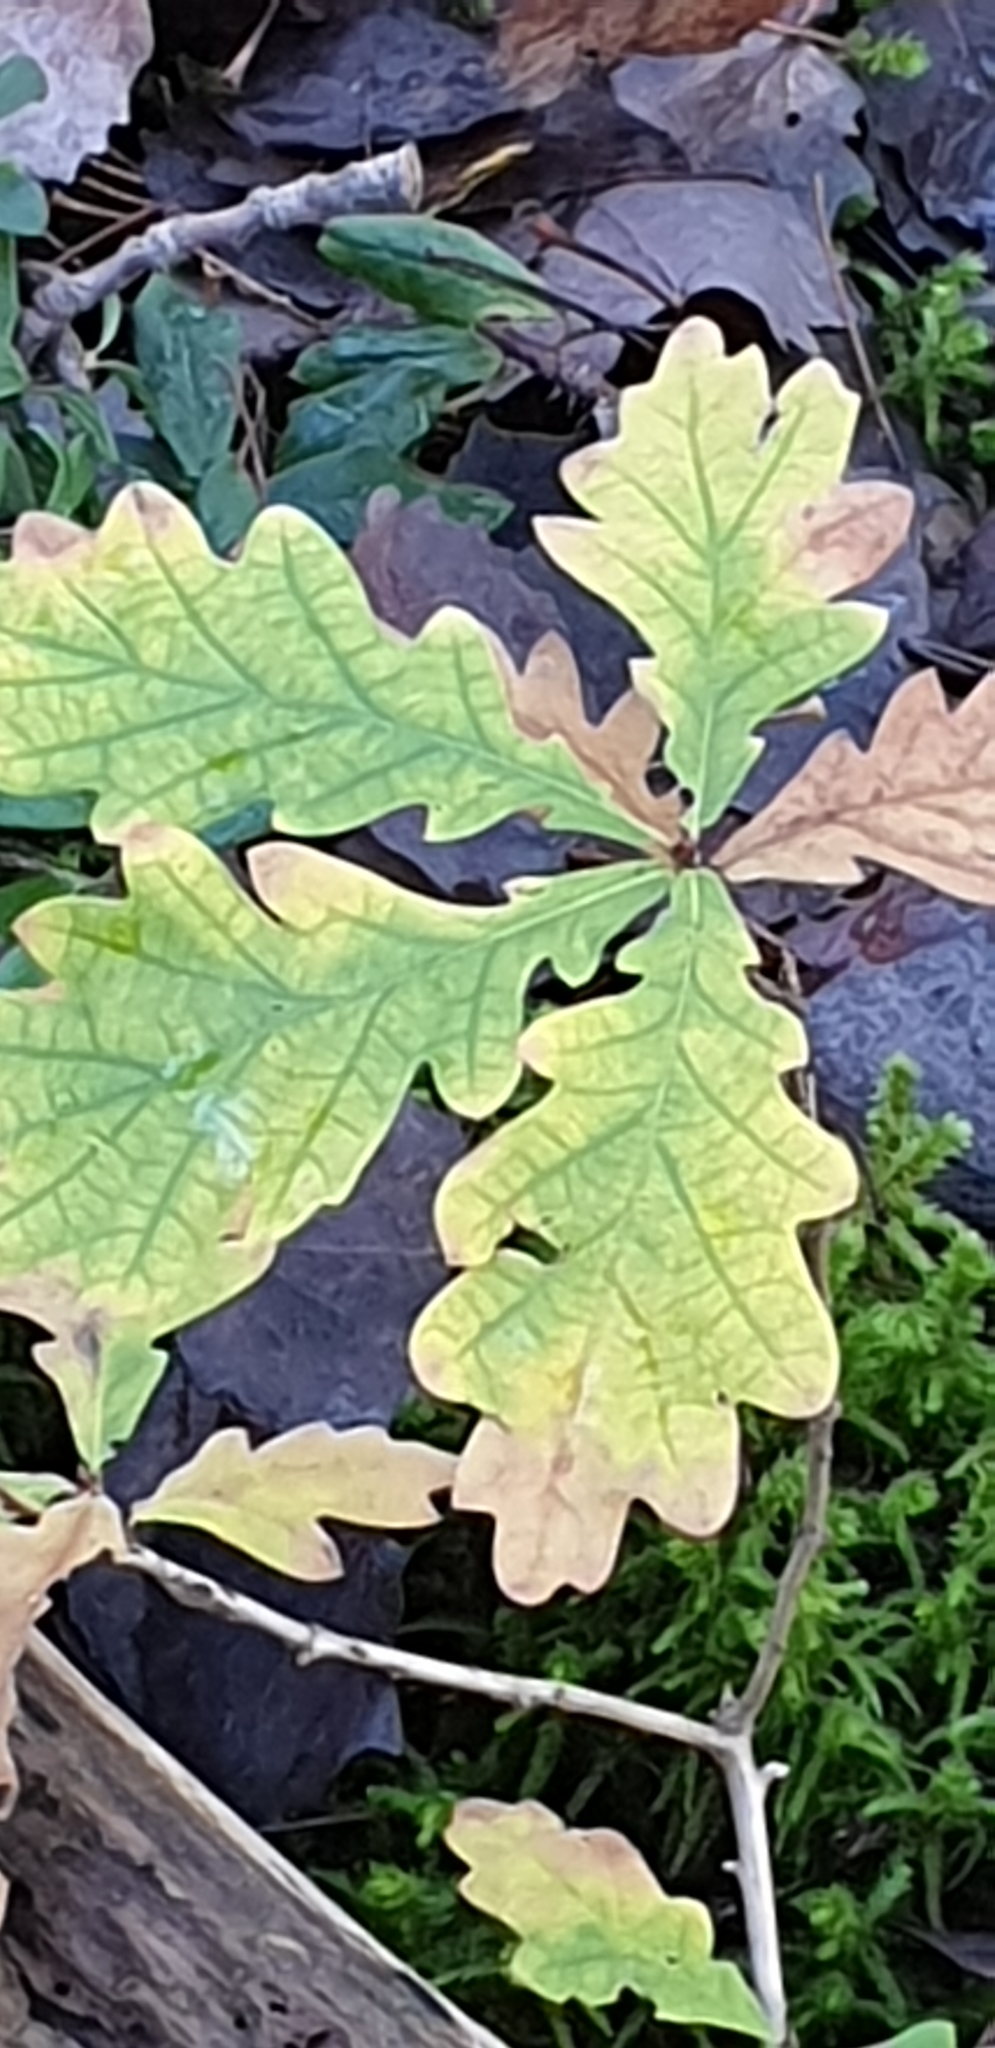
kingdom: Plantae
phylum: Tracheophyta
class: Magnoliopsida
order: Fagales
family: Fagaceae
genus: Quercus
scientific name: Quercus robur
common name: Pedunculate oak
